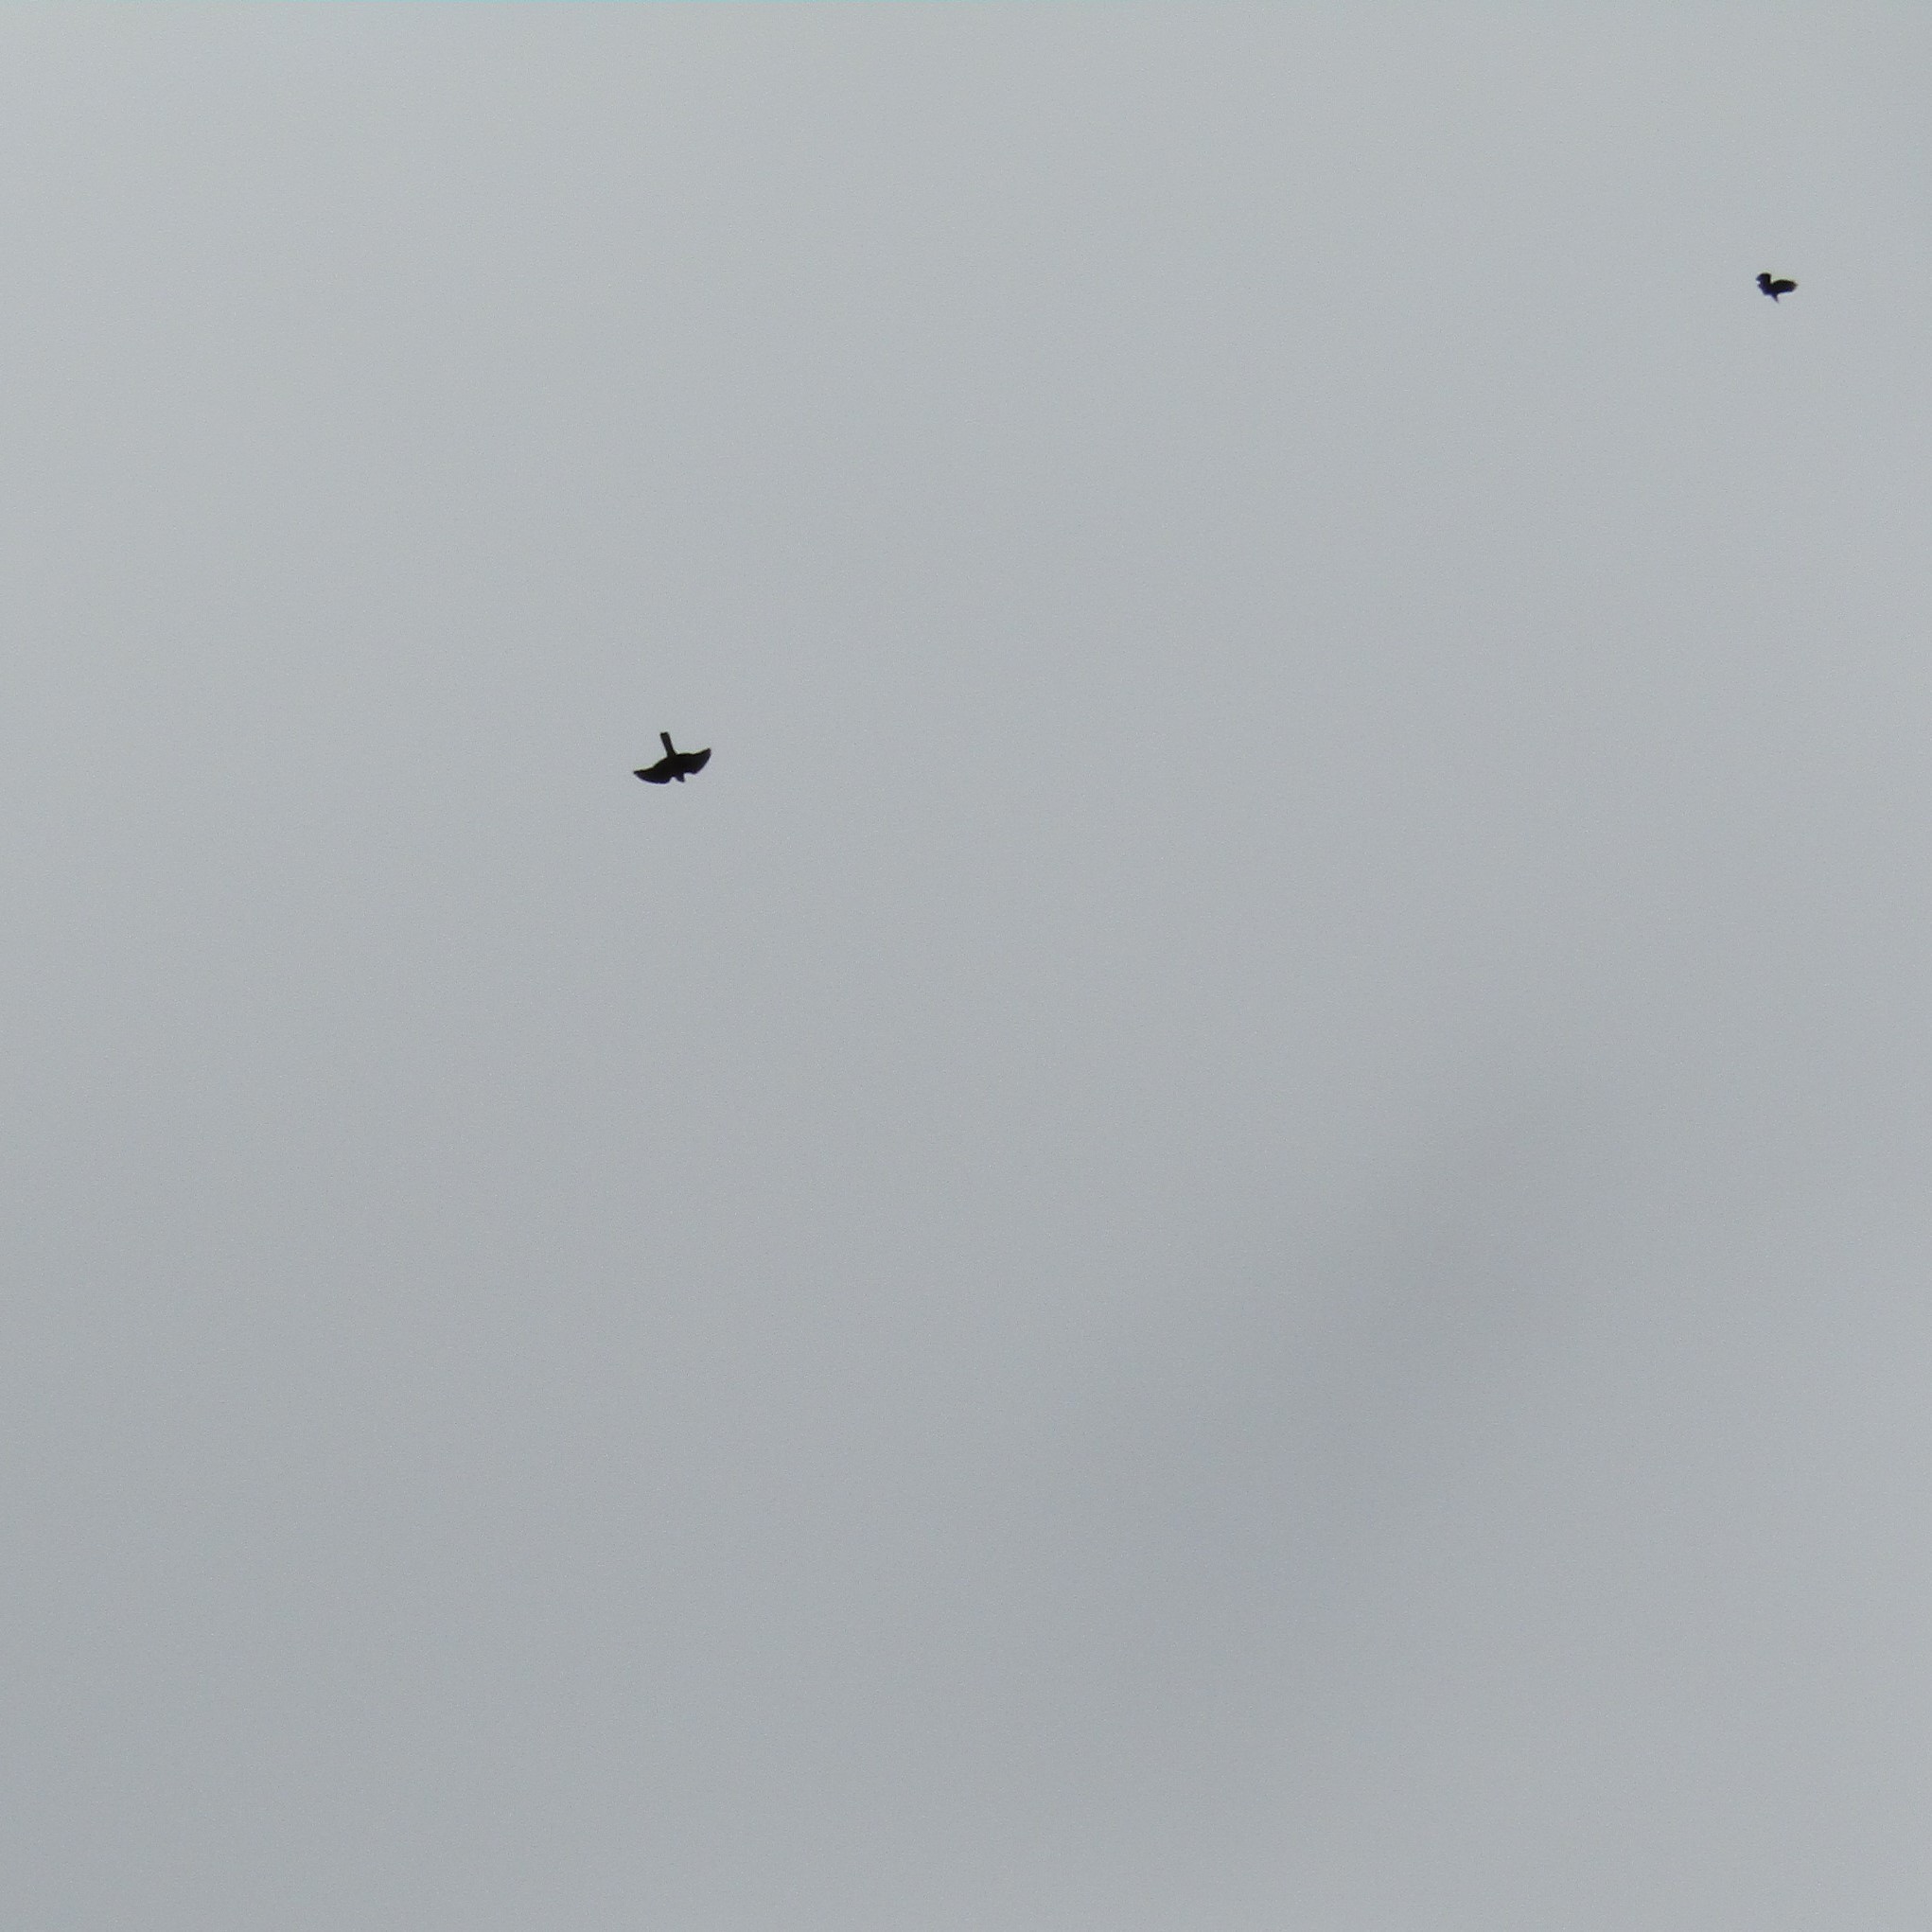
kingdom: Animalia
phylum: Chordata
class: Aves
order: Falconiformes
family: Falconidae
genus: Falco
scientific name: Falco novaeseelandiae
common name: New zealand falcon
